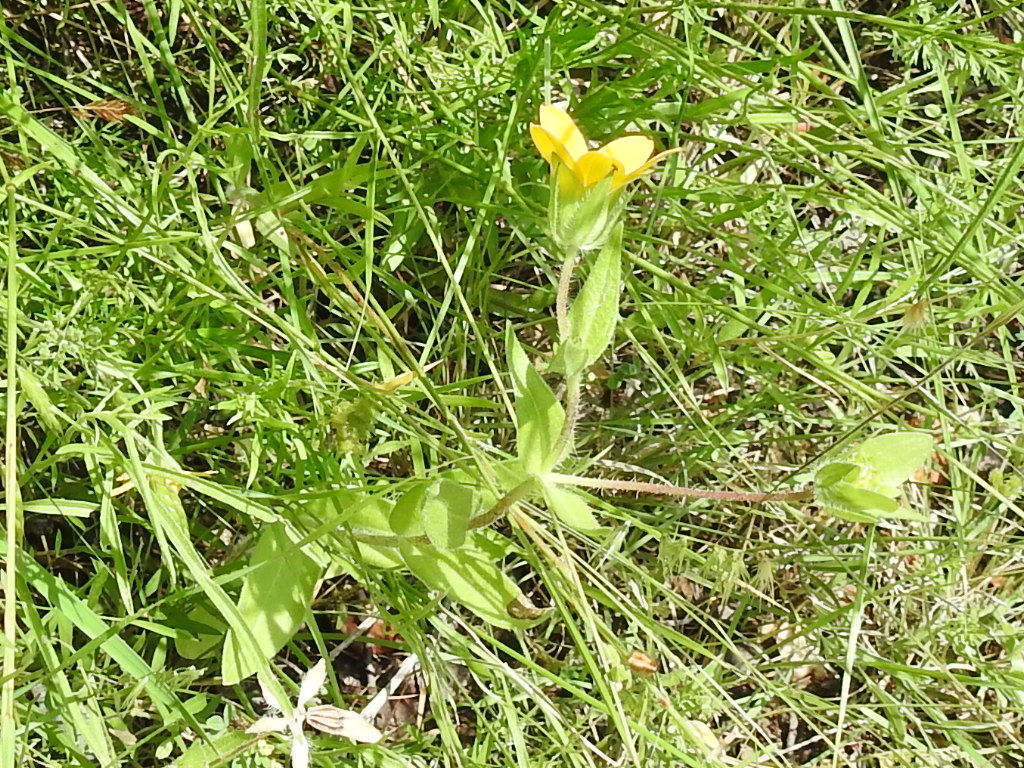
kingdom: Plantae
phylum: Tracheophyta
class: Magnoliopsida
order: Asterales
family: Asteraceae
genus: Lindheimera
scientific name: Lindheimera texana
